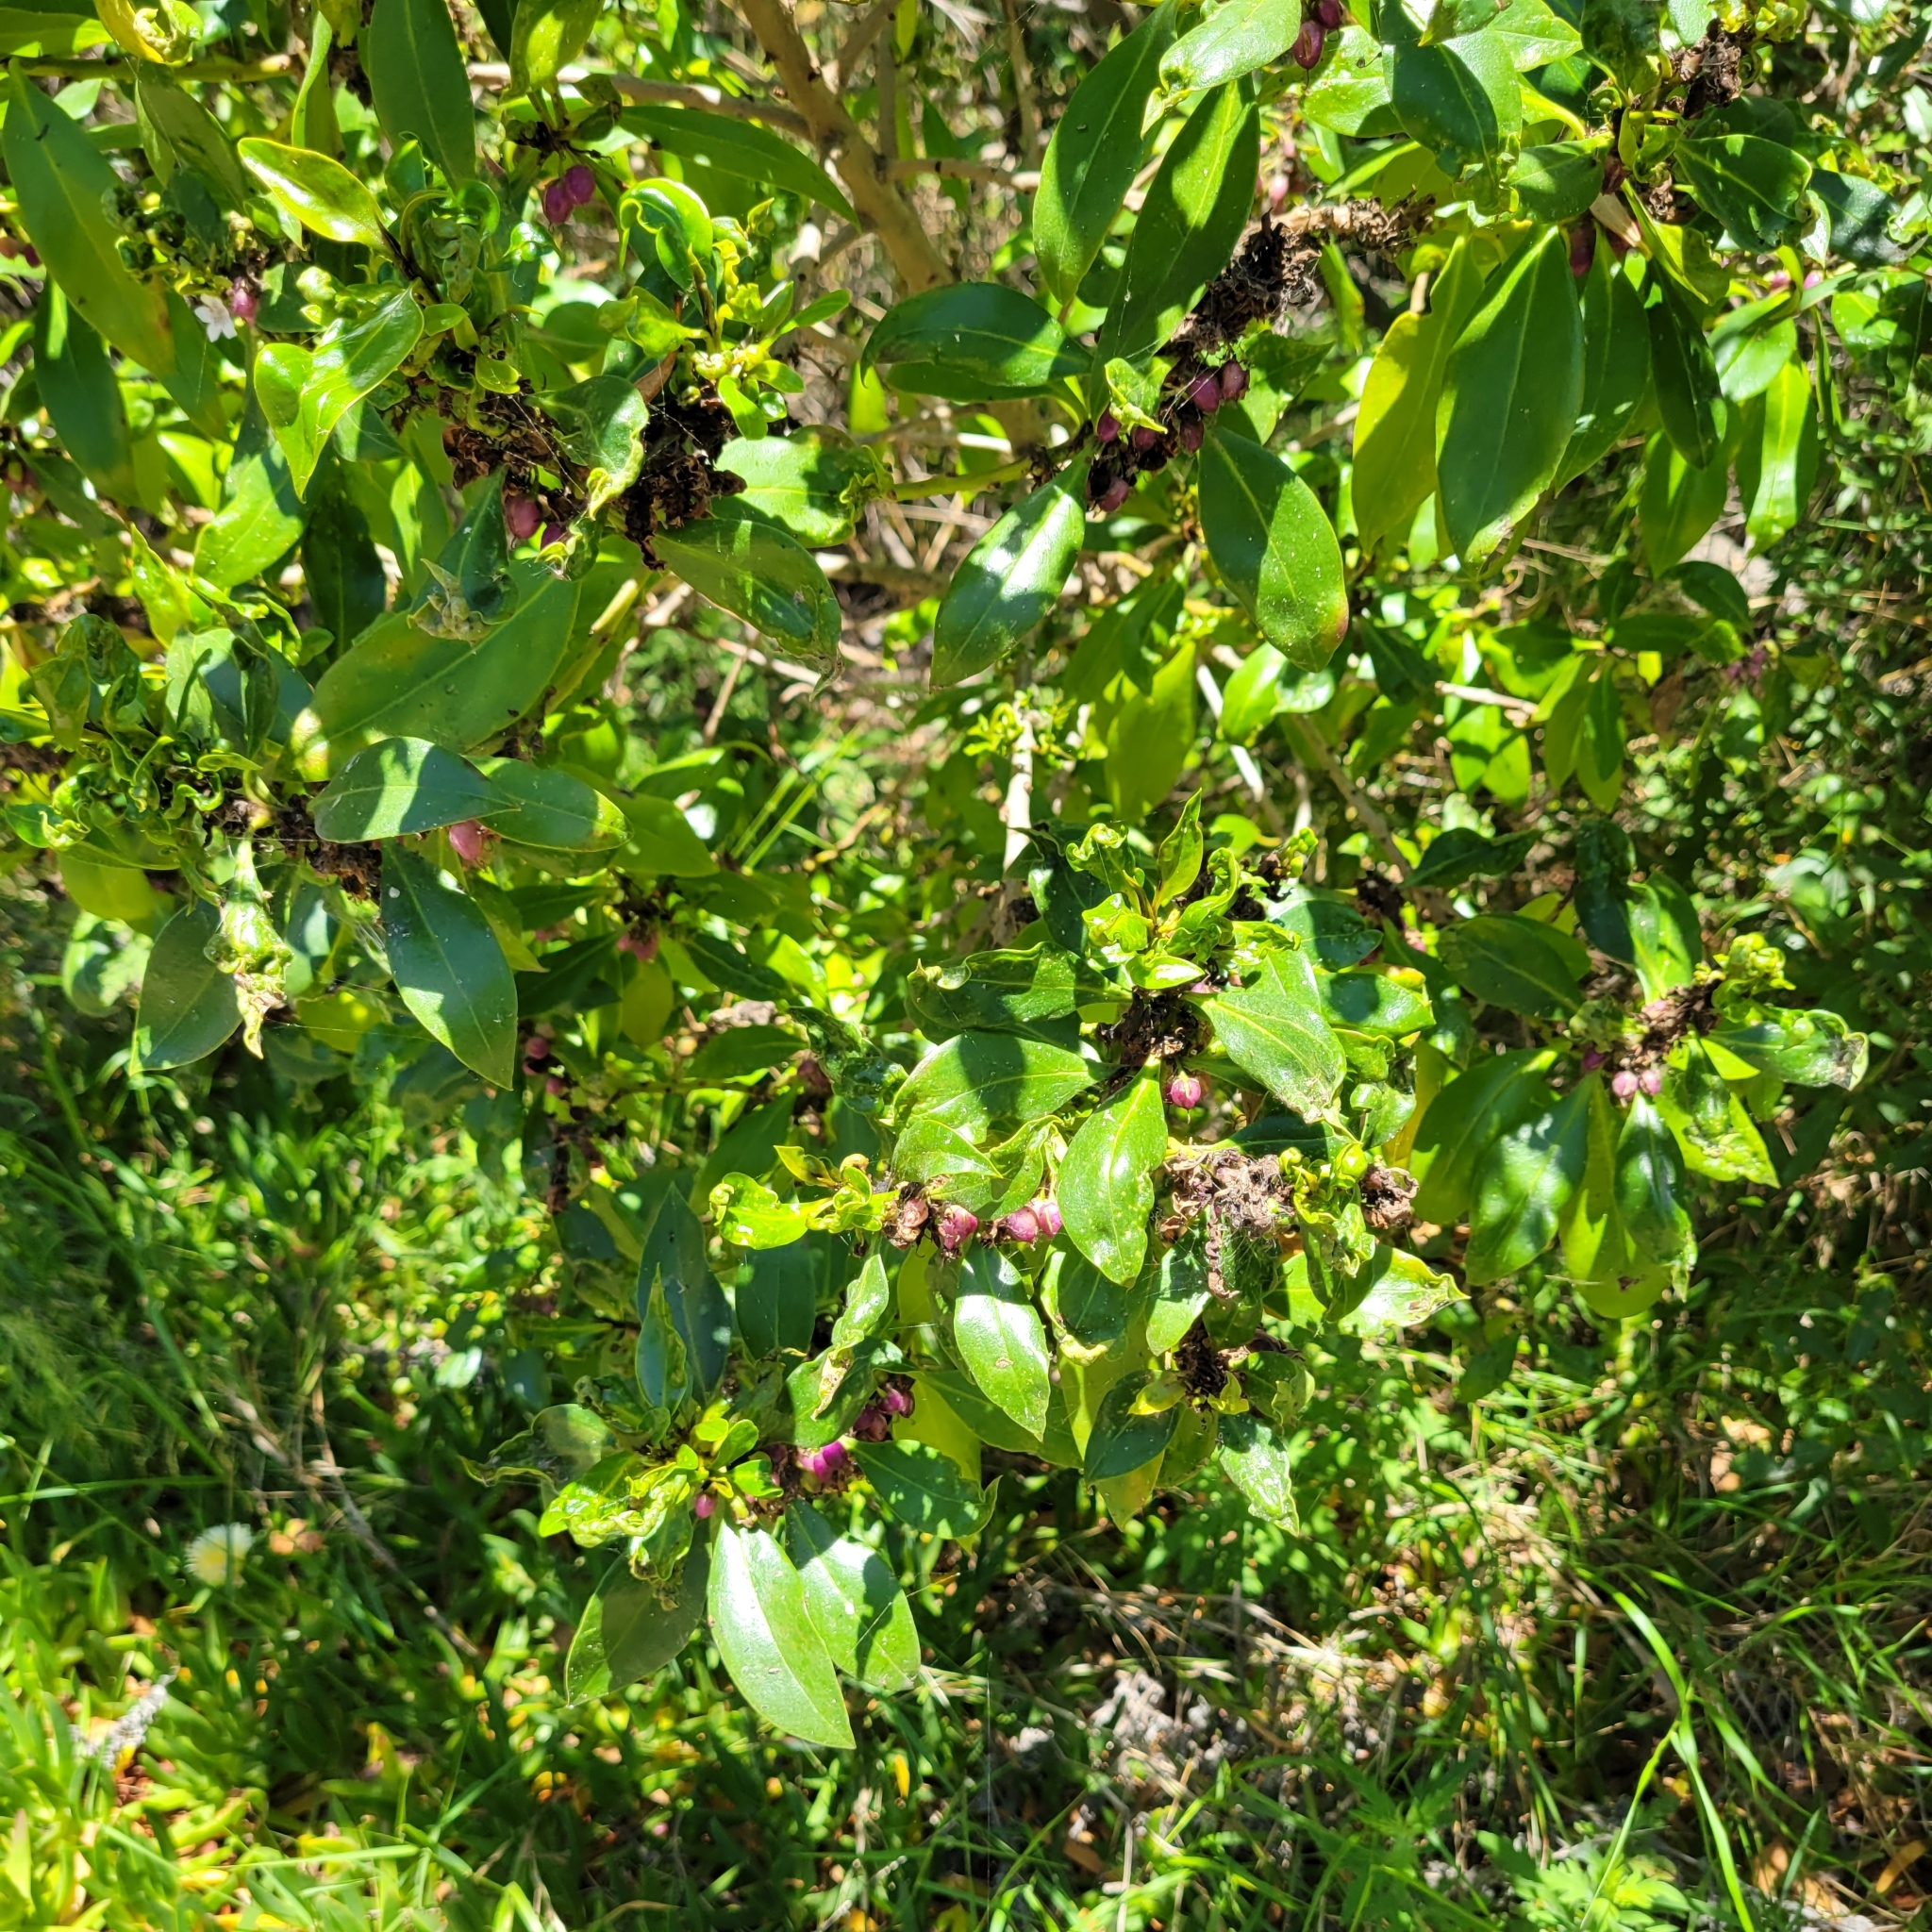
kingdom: Plantae
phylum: Tracheophyta
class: Magnoliopsida
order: Lamiales
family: Scrophulariaceae
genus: Myoporum
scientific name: Myoporum laetum
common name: Ngaio tree
